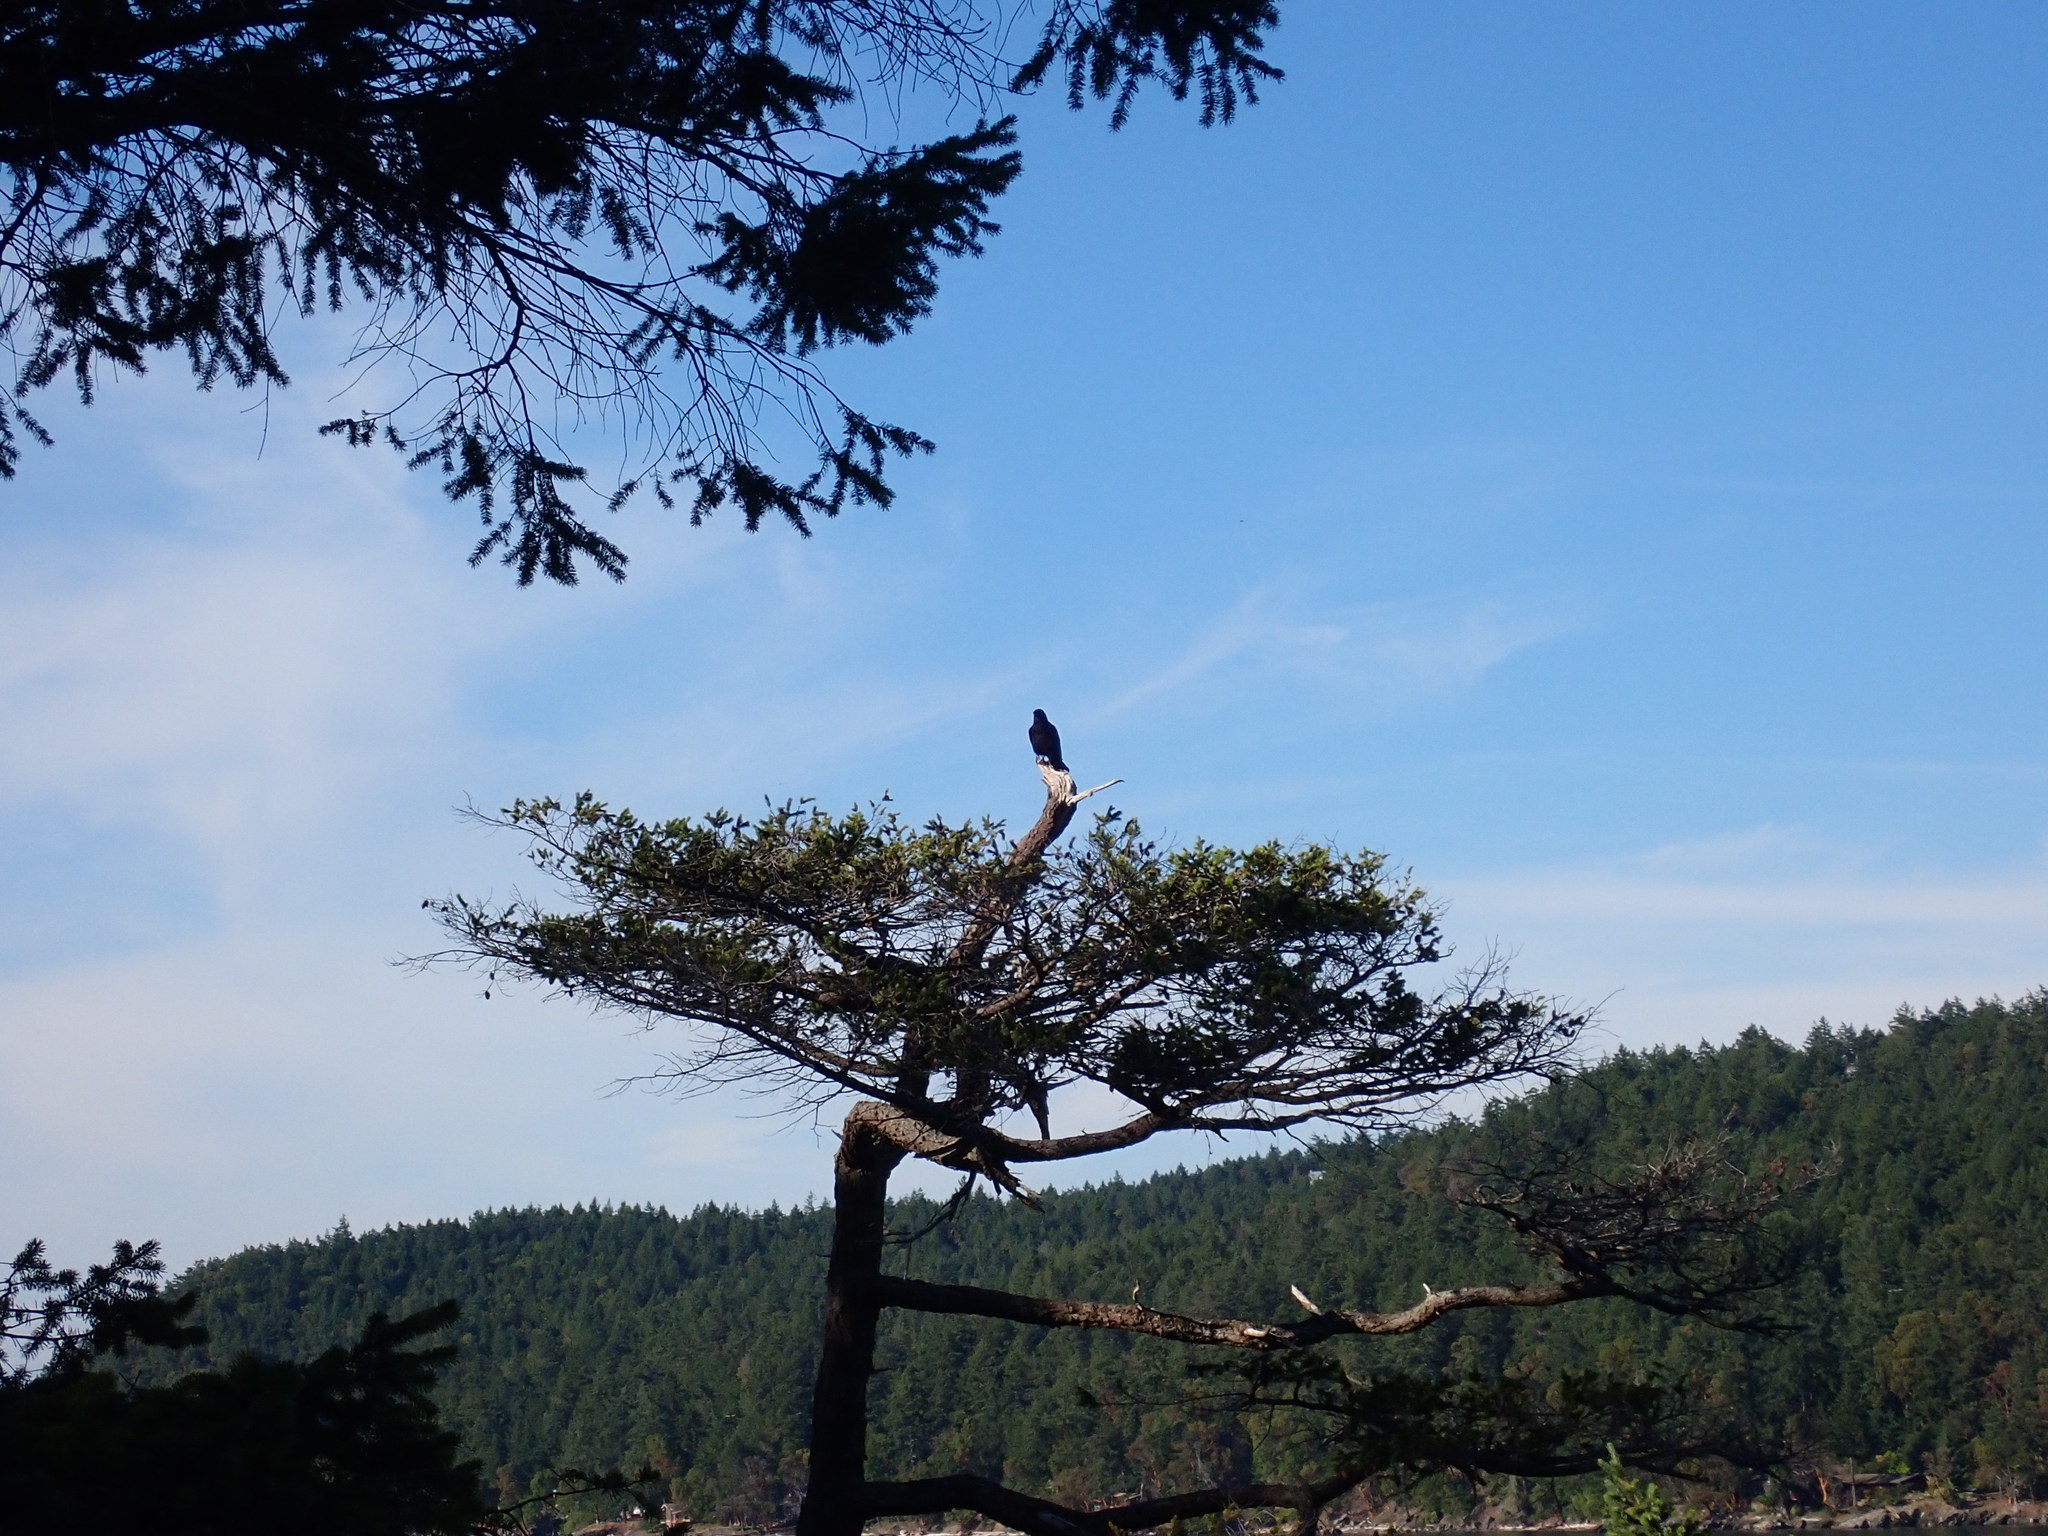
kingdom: Animalia
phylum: Chordata
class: Aves
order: Passeriformes
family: Corvidae
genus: Corvus
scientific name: Corvus brachyrhynchos
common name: American crow
